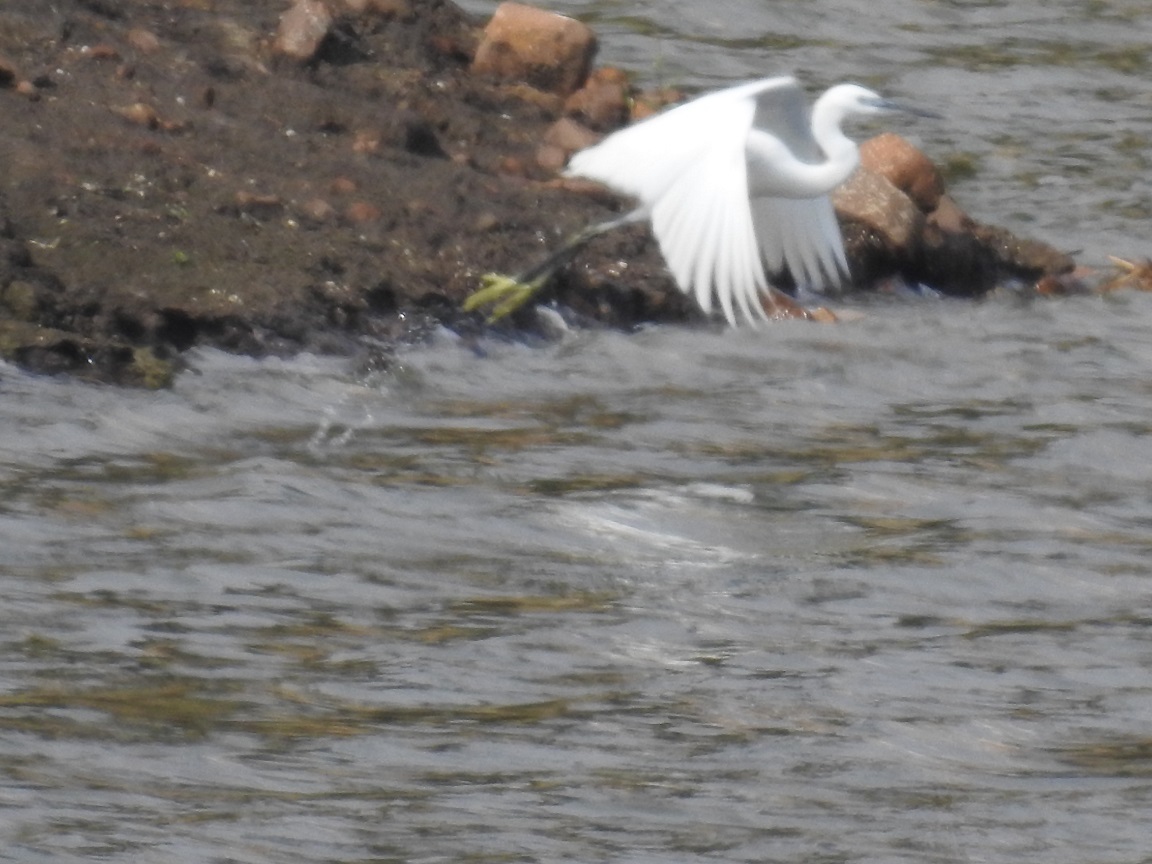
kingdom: Animalia
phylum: Chordata
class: Aves
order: Pelecaniformes
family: Ardeidae
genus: Egretta
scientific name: Egretta garzetta
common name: Little egret
